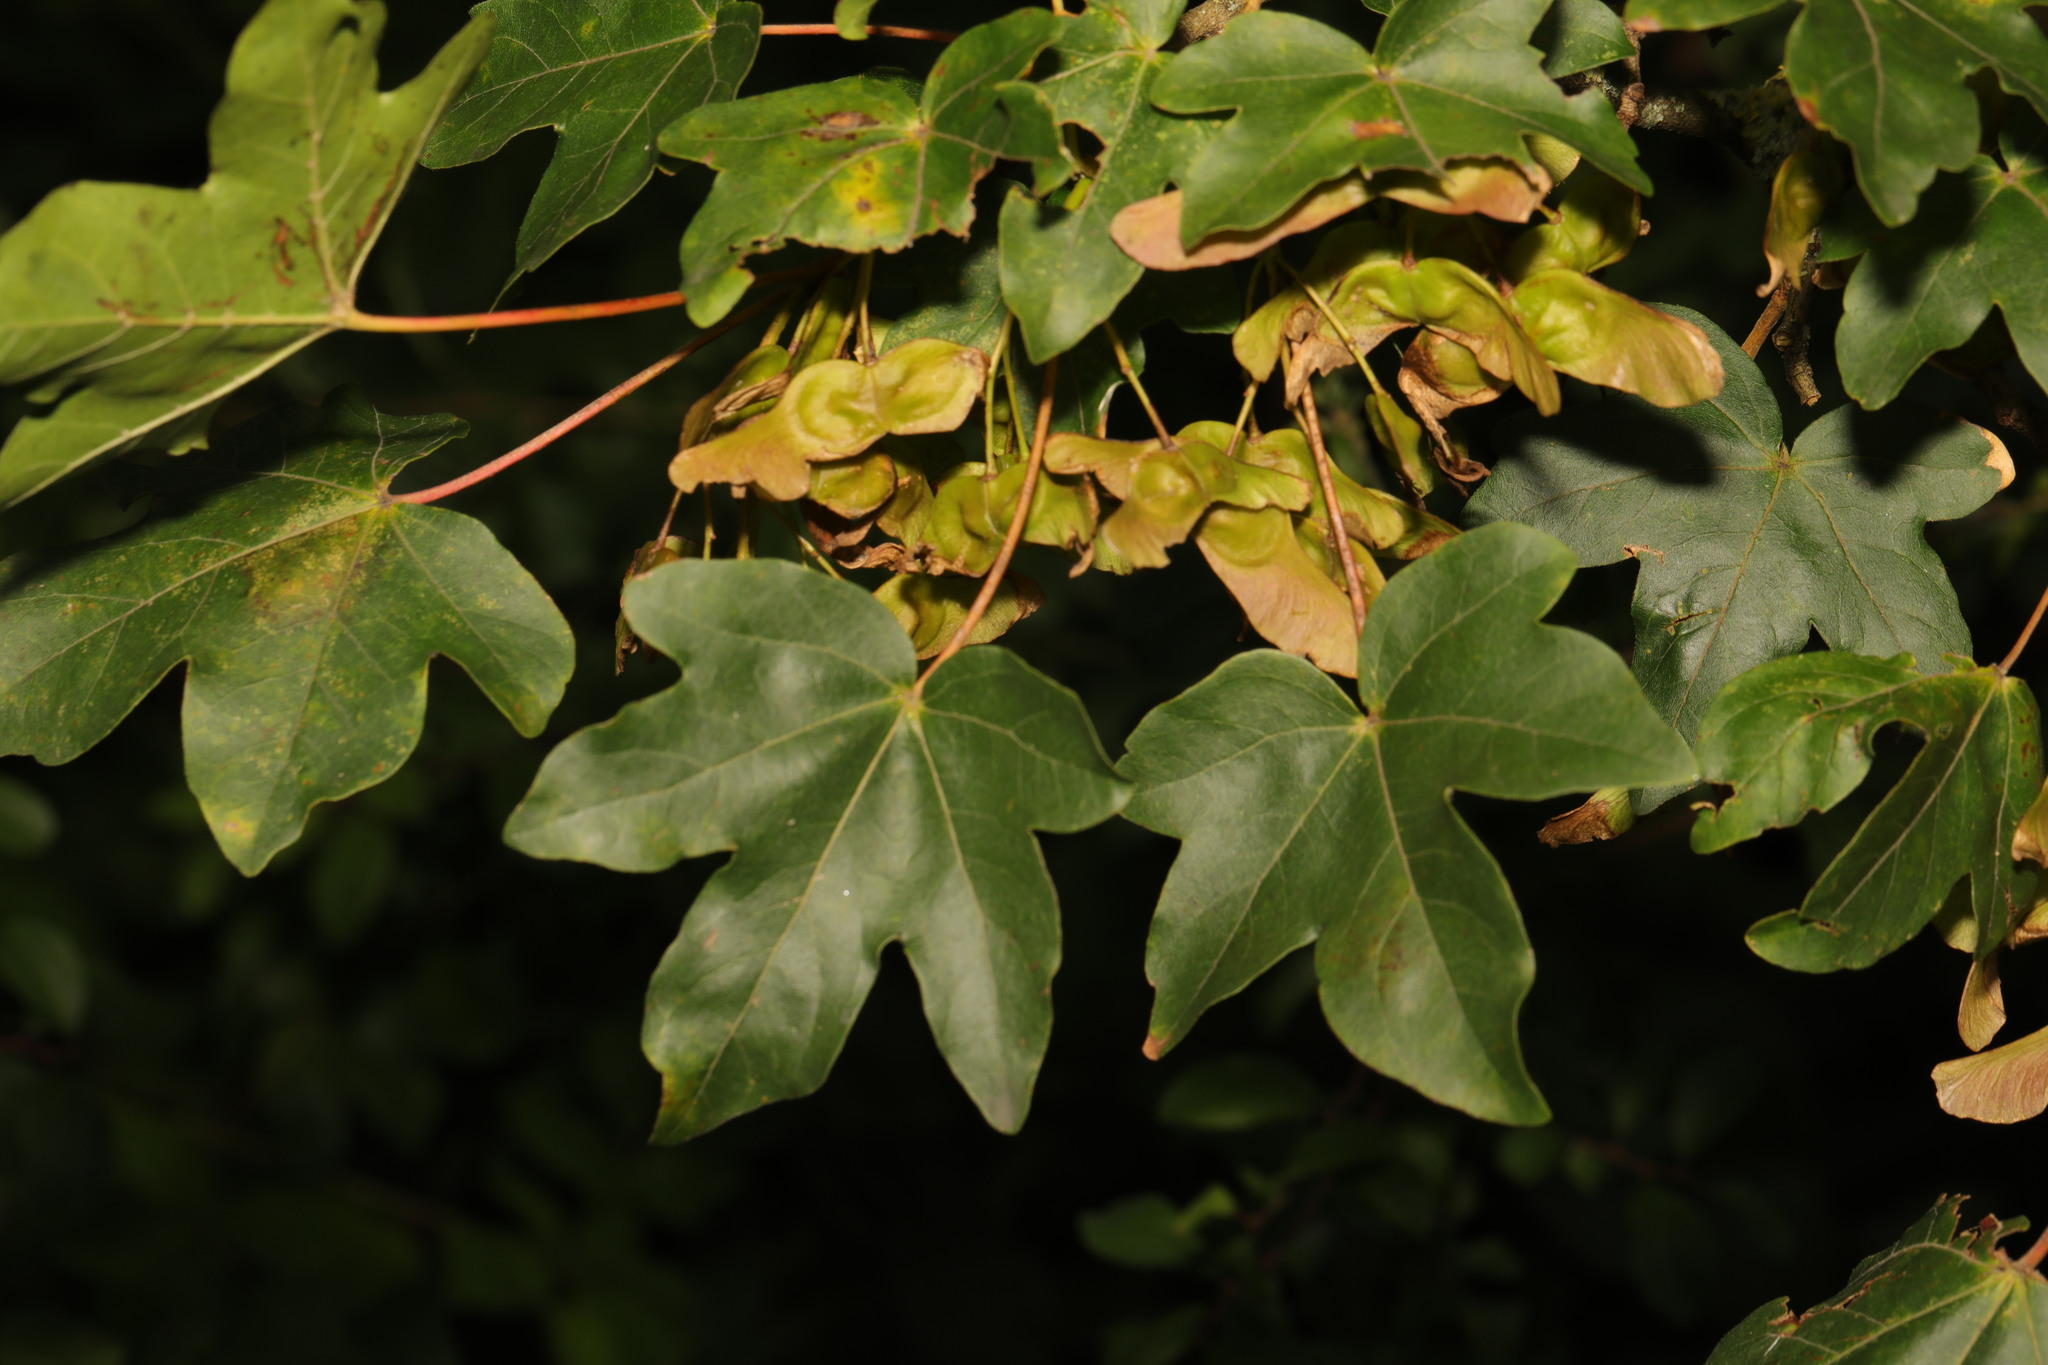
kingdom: Plantae
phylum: Tracheophyta
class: Magnoliopsida
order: Sapindales
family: Sapindaceae
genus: Acer
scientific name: Acer campestre
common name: Field maple
